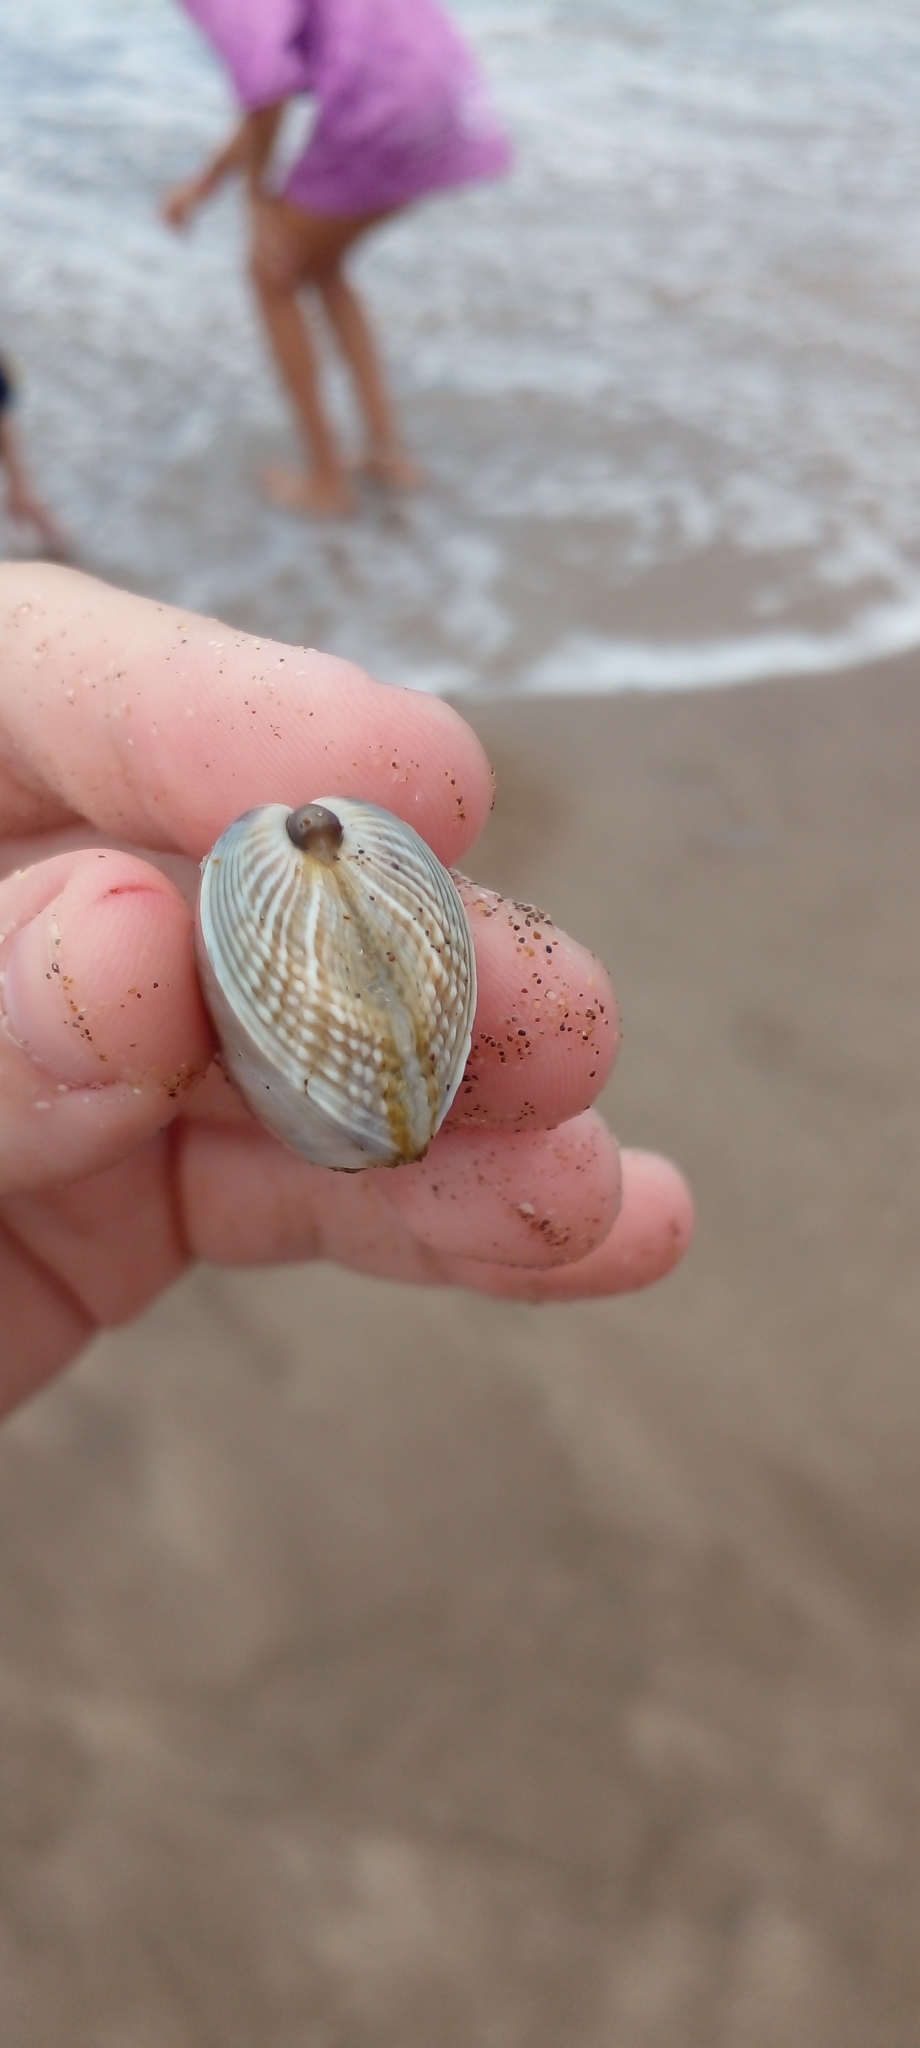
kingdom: Animalia
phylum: Mollusca
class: Bivalvia
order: Cardiida
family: Donacidae
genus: Donax
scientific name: Donax hanleyanus
